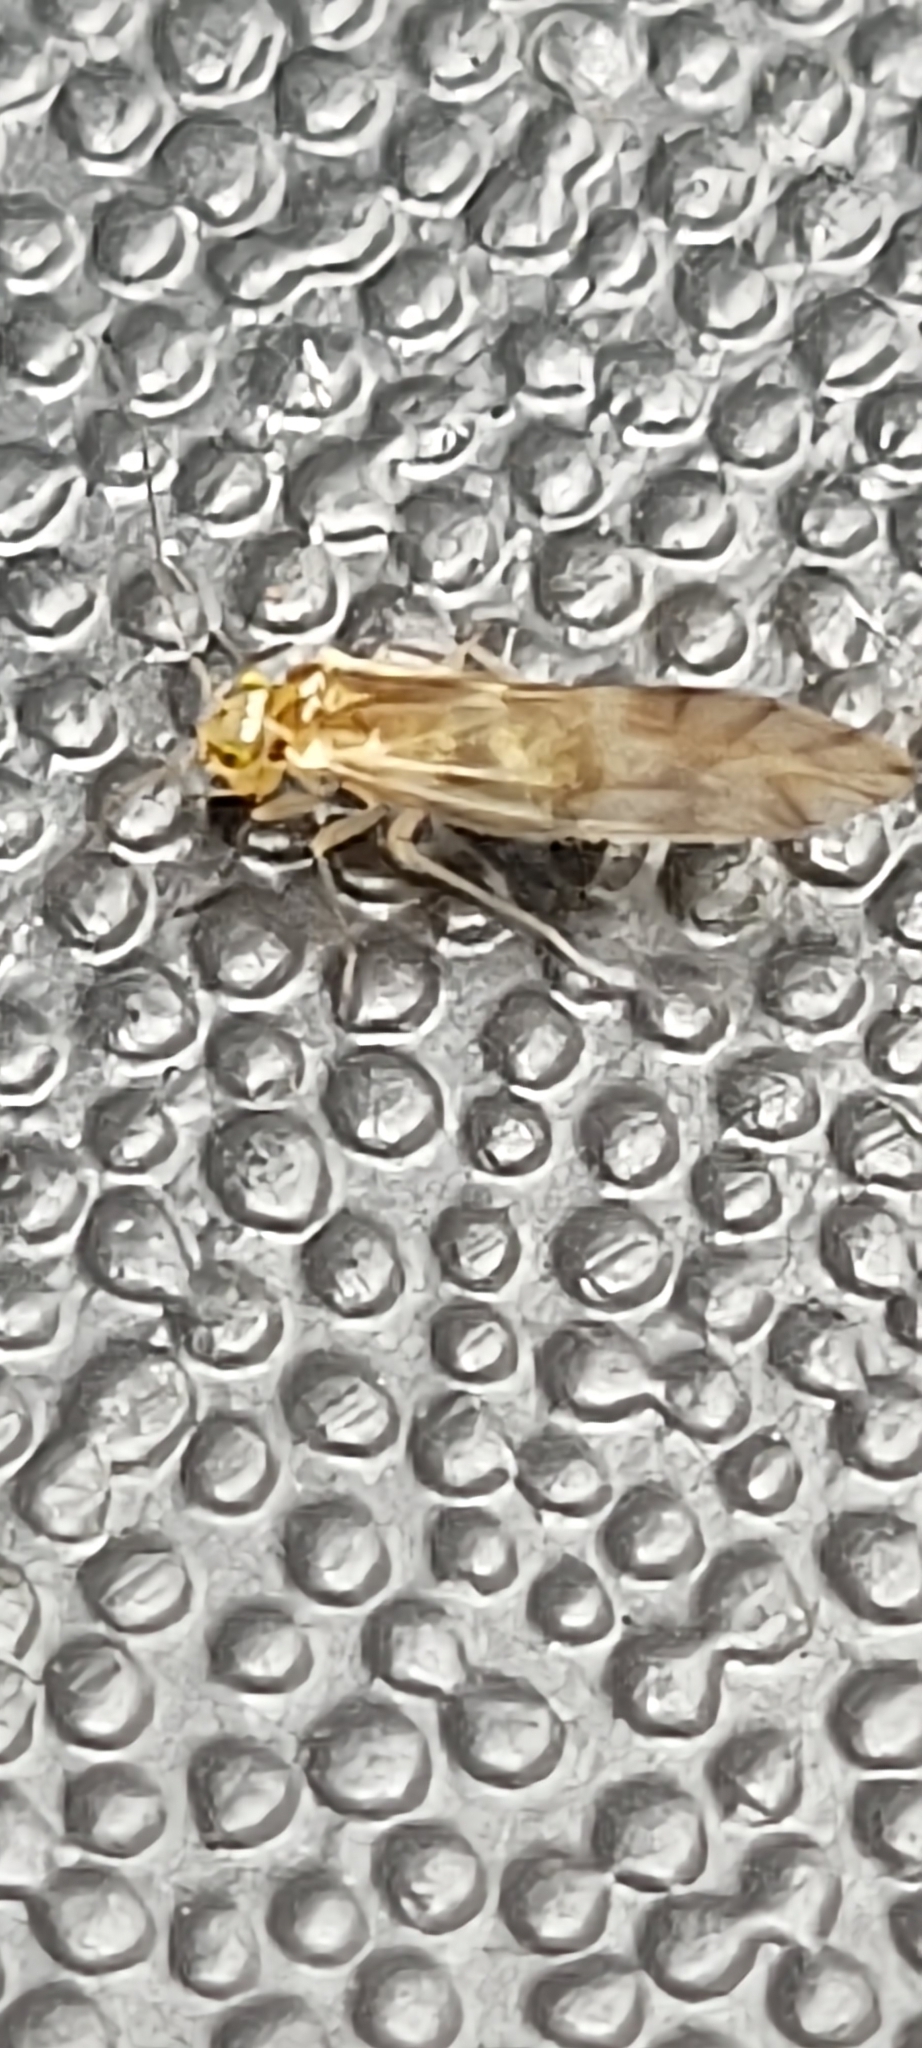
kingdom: Animalia
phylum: Arthropoda
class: Insecta
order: Psocodea
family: Caeciliusidae
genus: Valenzuela
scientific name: Valenzuela flavidus
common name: Yellow barklouse
